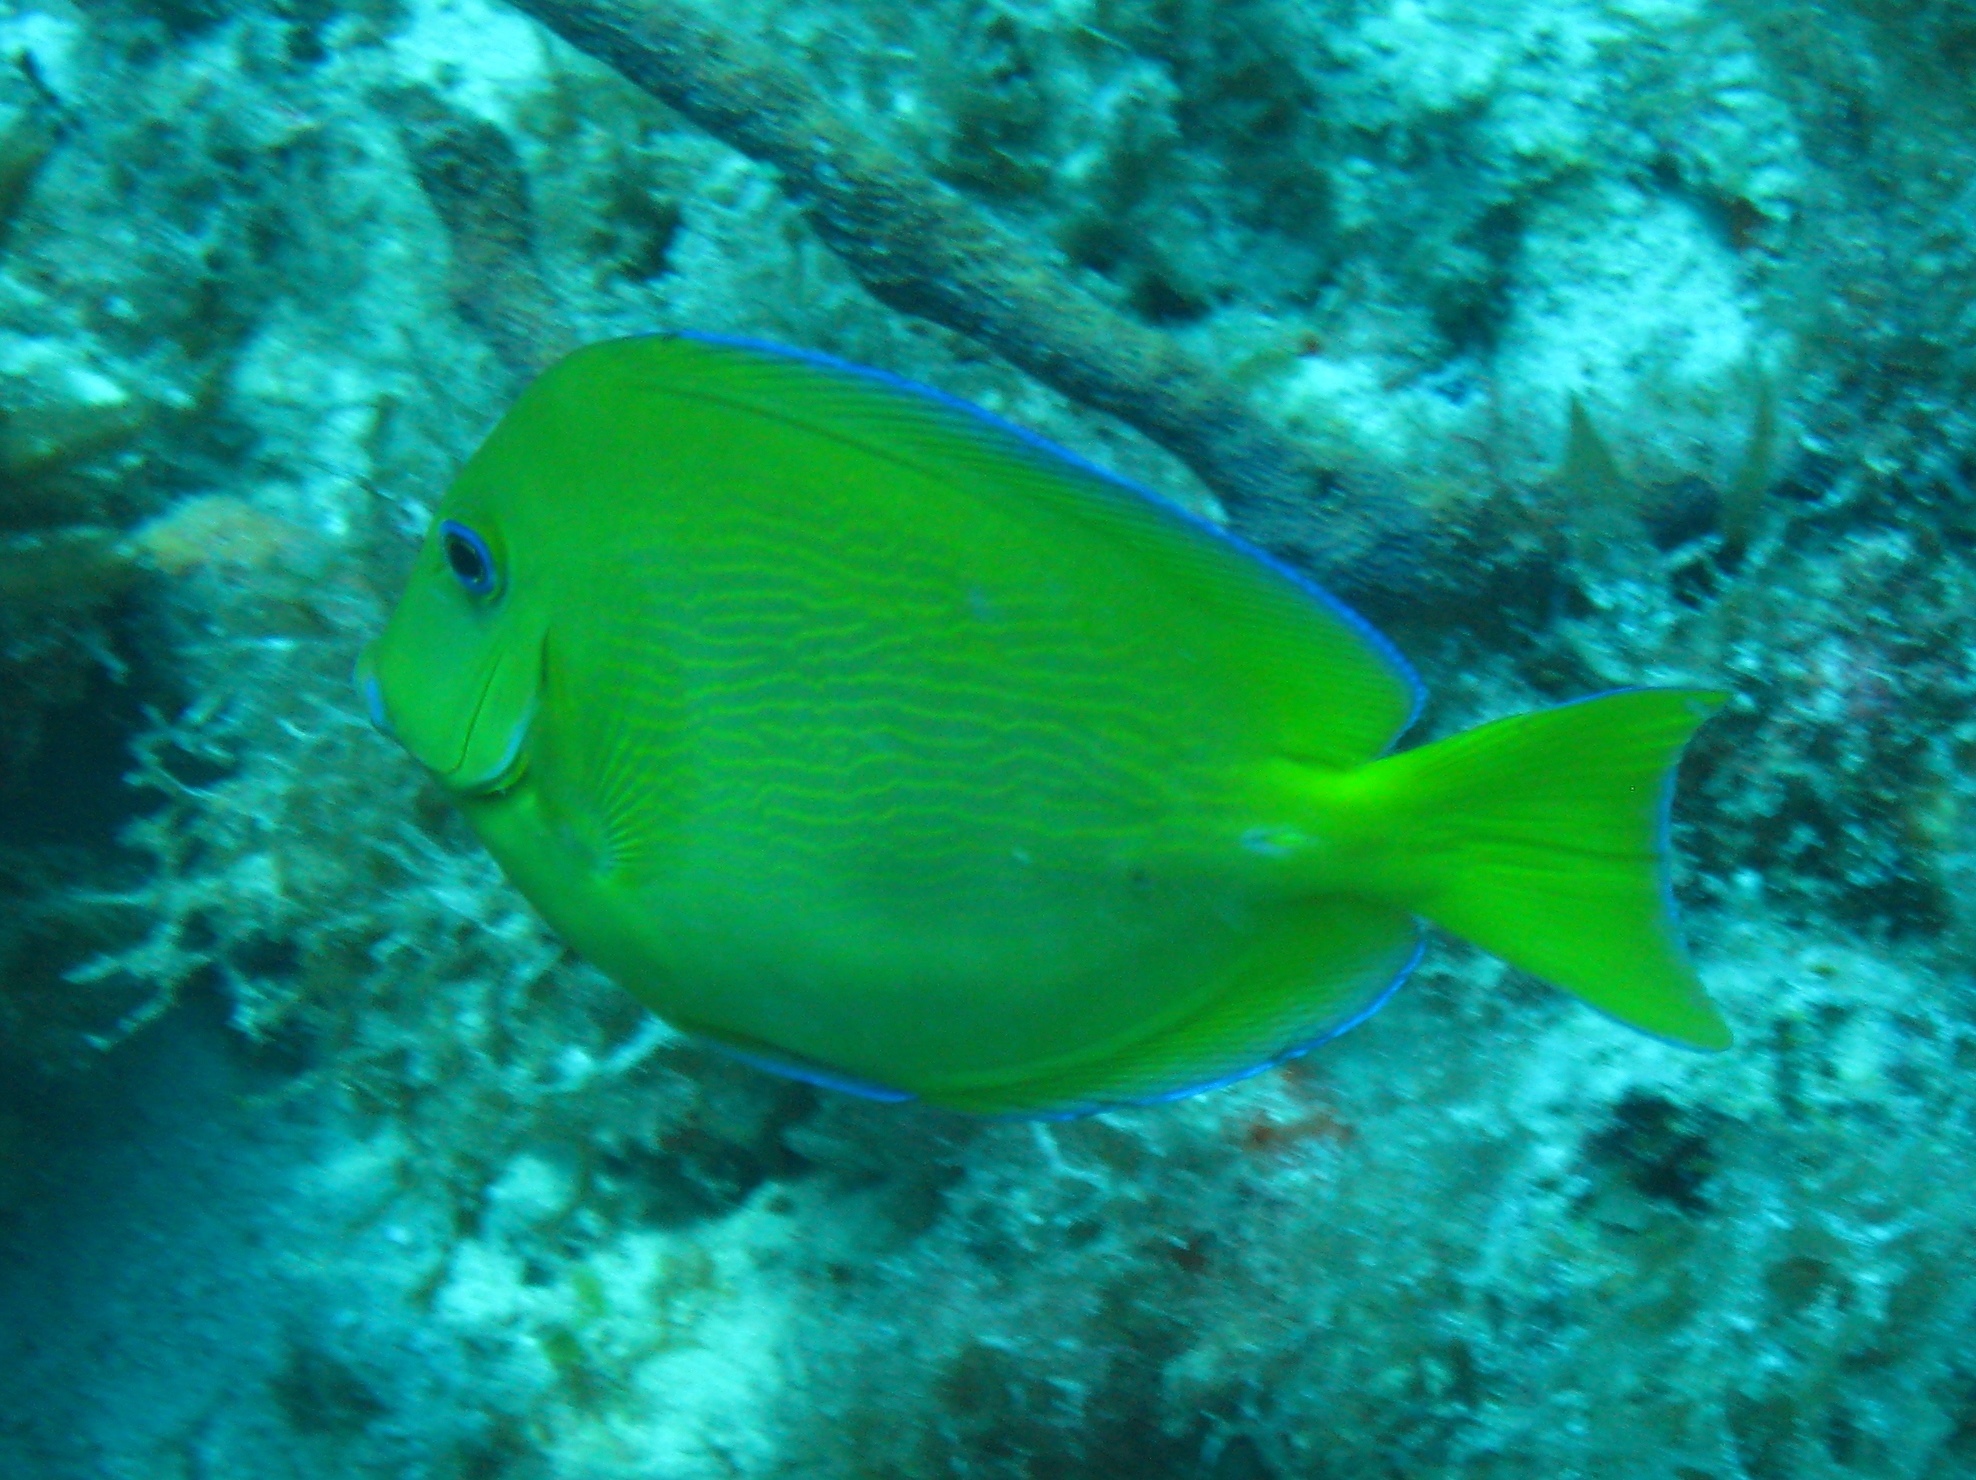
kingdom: Animalia
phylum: Chordata
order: Perciformes
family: Acanthuridae
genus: Acanthurus
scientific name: Acanthurus coeruleus
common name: Blue tang
